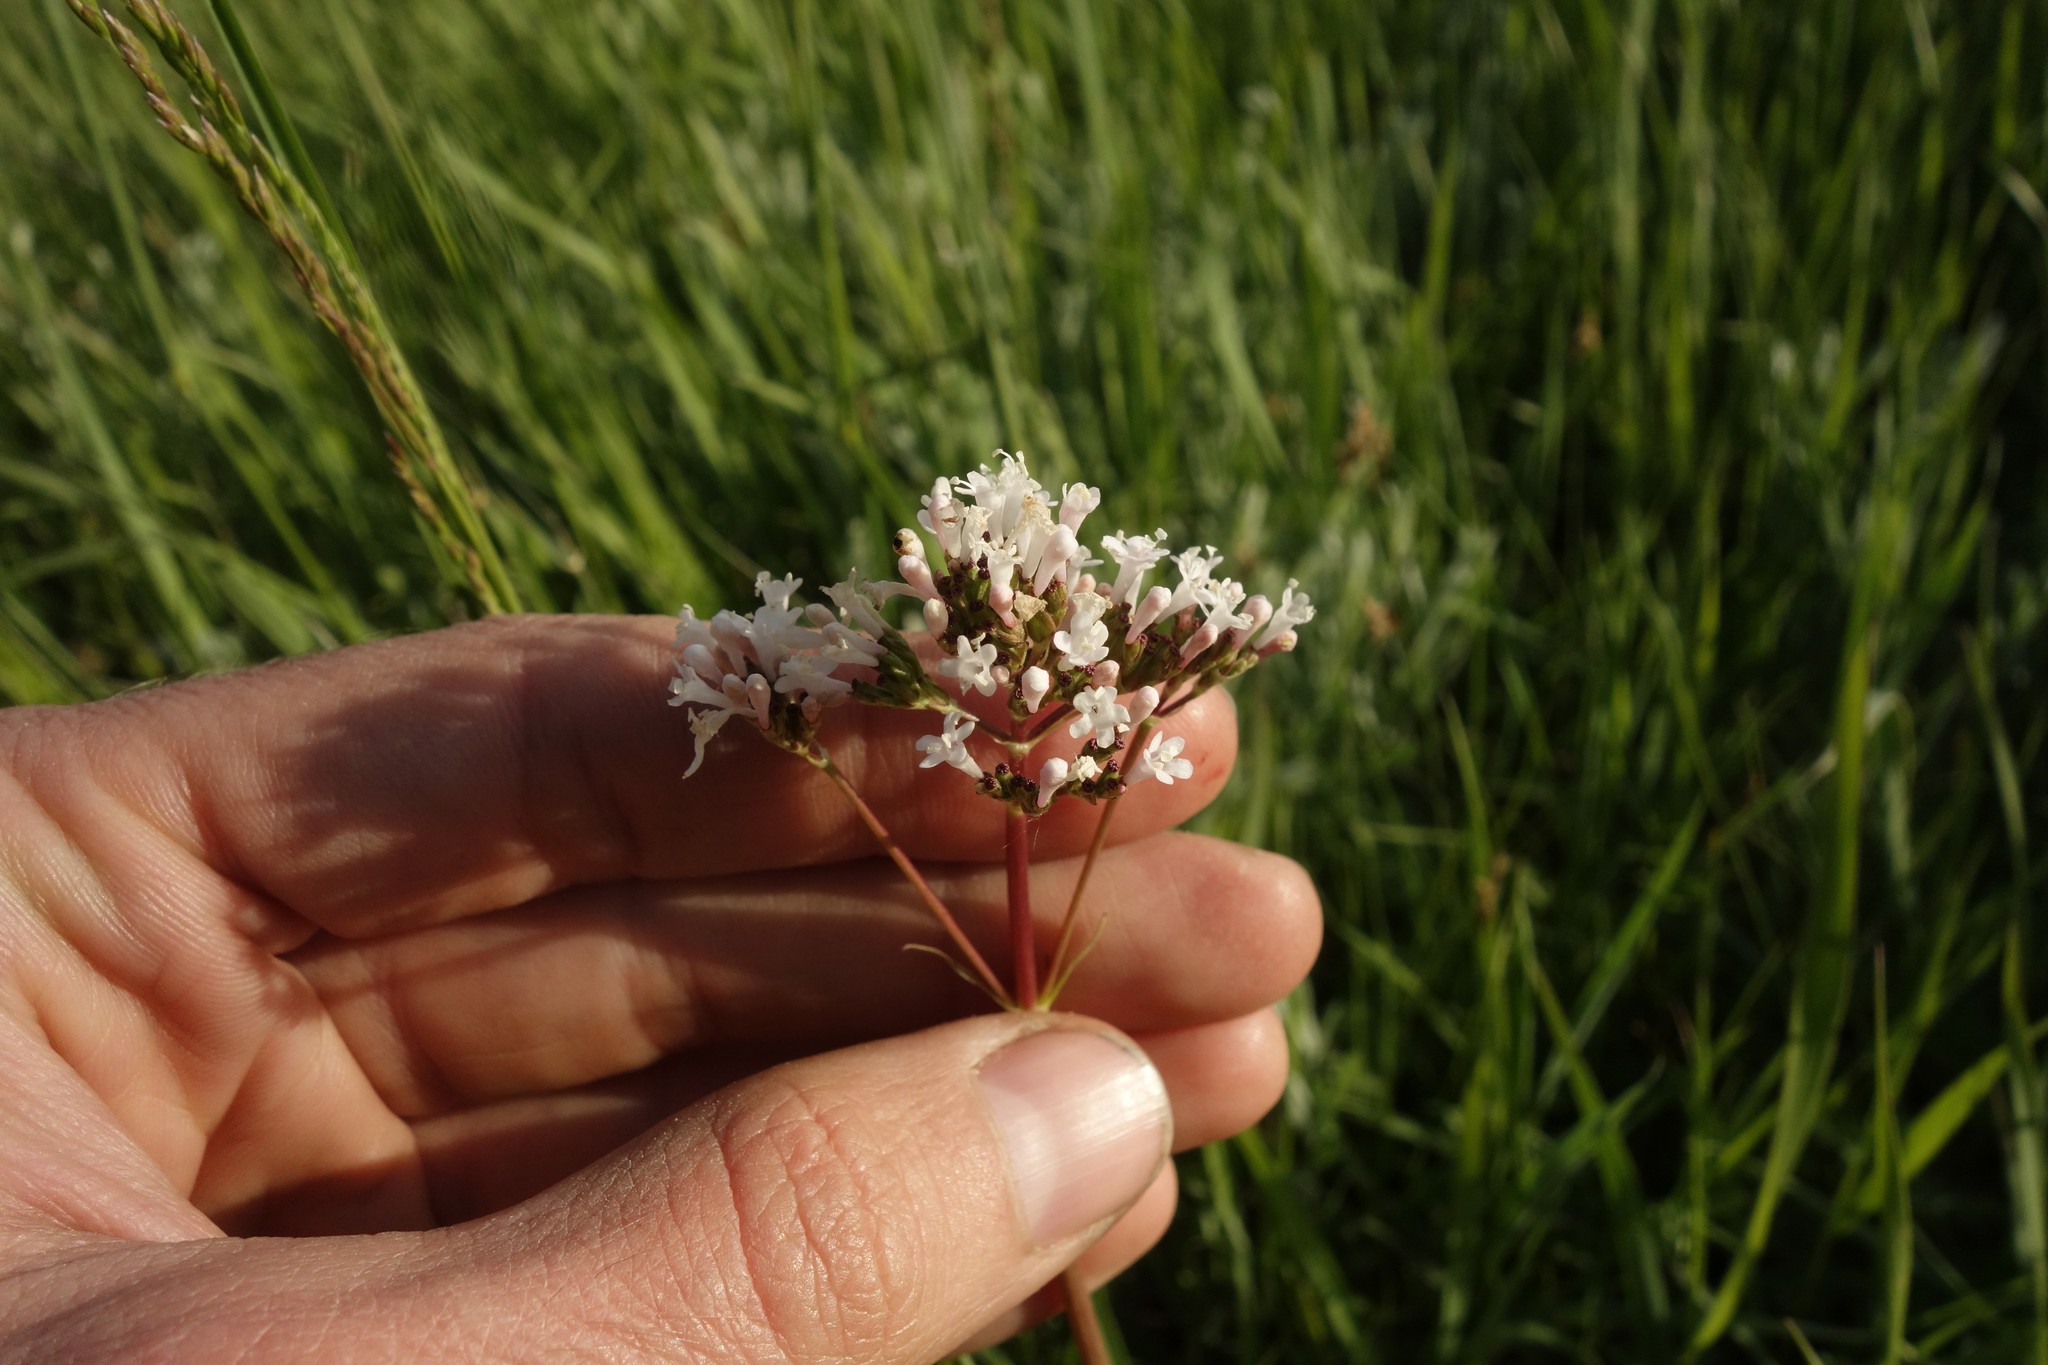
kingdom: Plantae
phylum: Tracheophyta
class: Magnoliopsida
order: Dipsacales
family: Caprifoliaceae
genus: Valeriana
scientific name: Valeriana tuberosa
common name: Tuberous valerian
